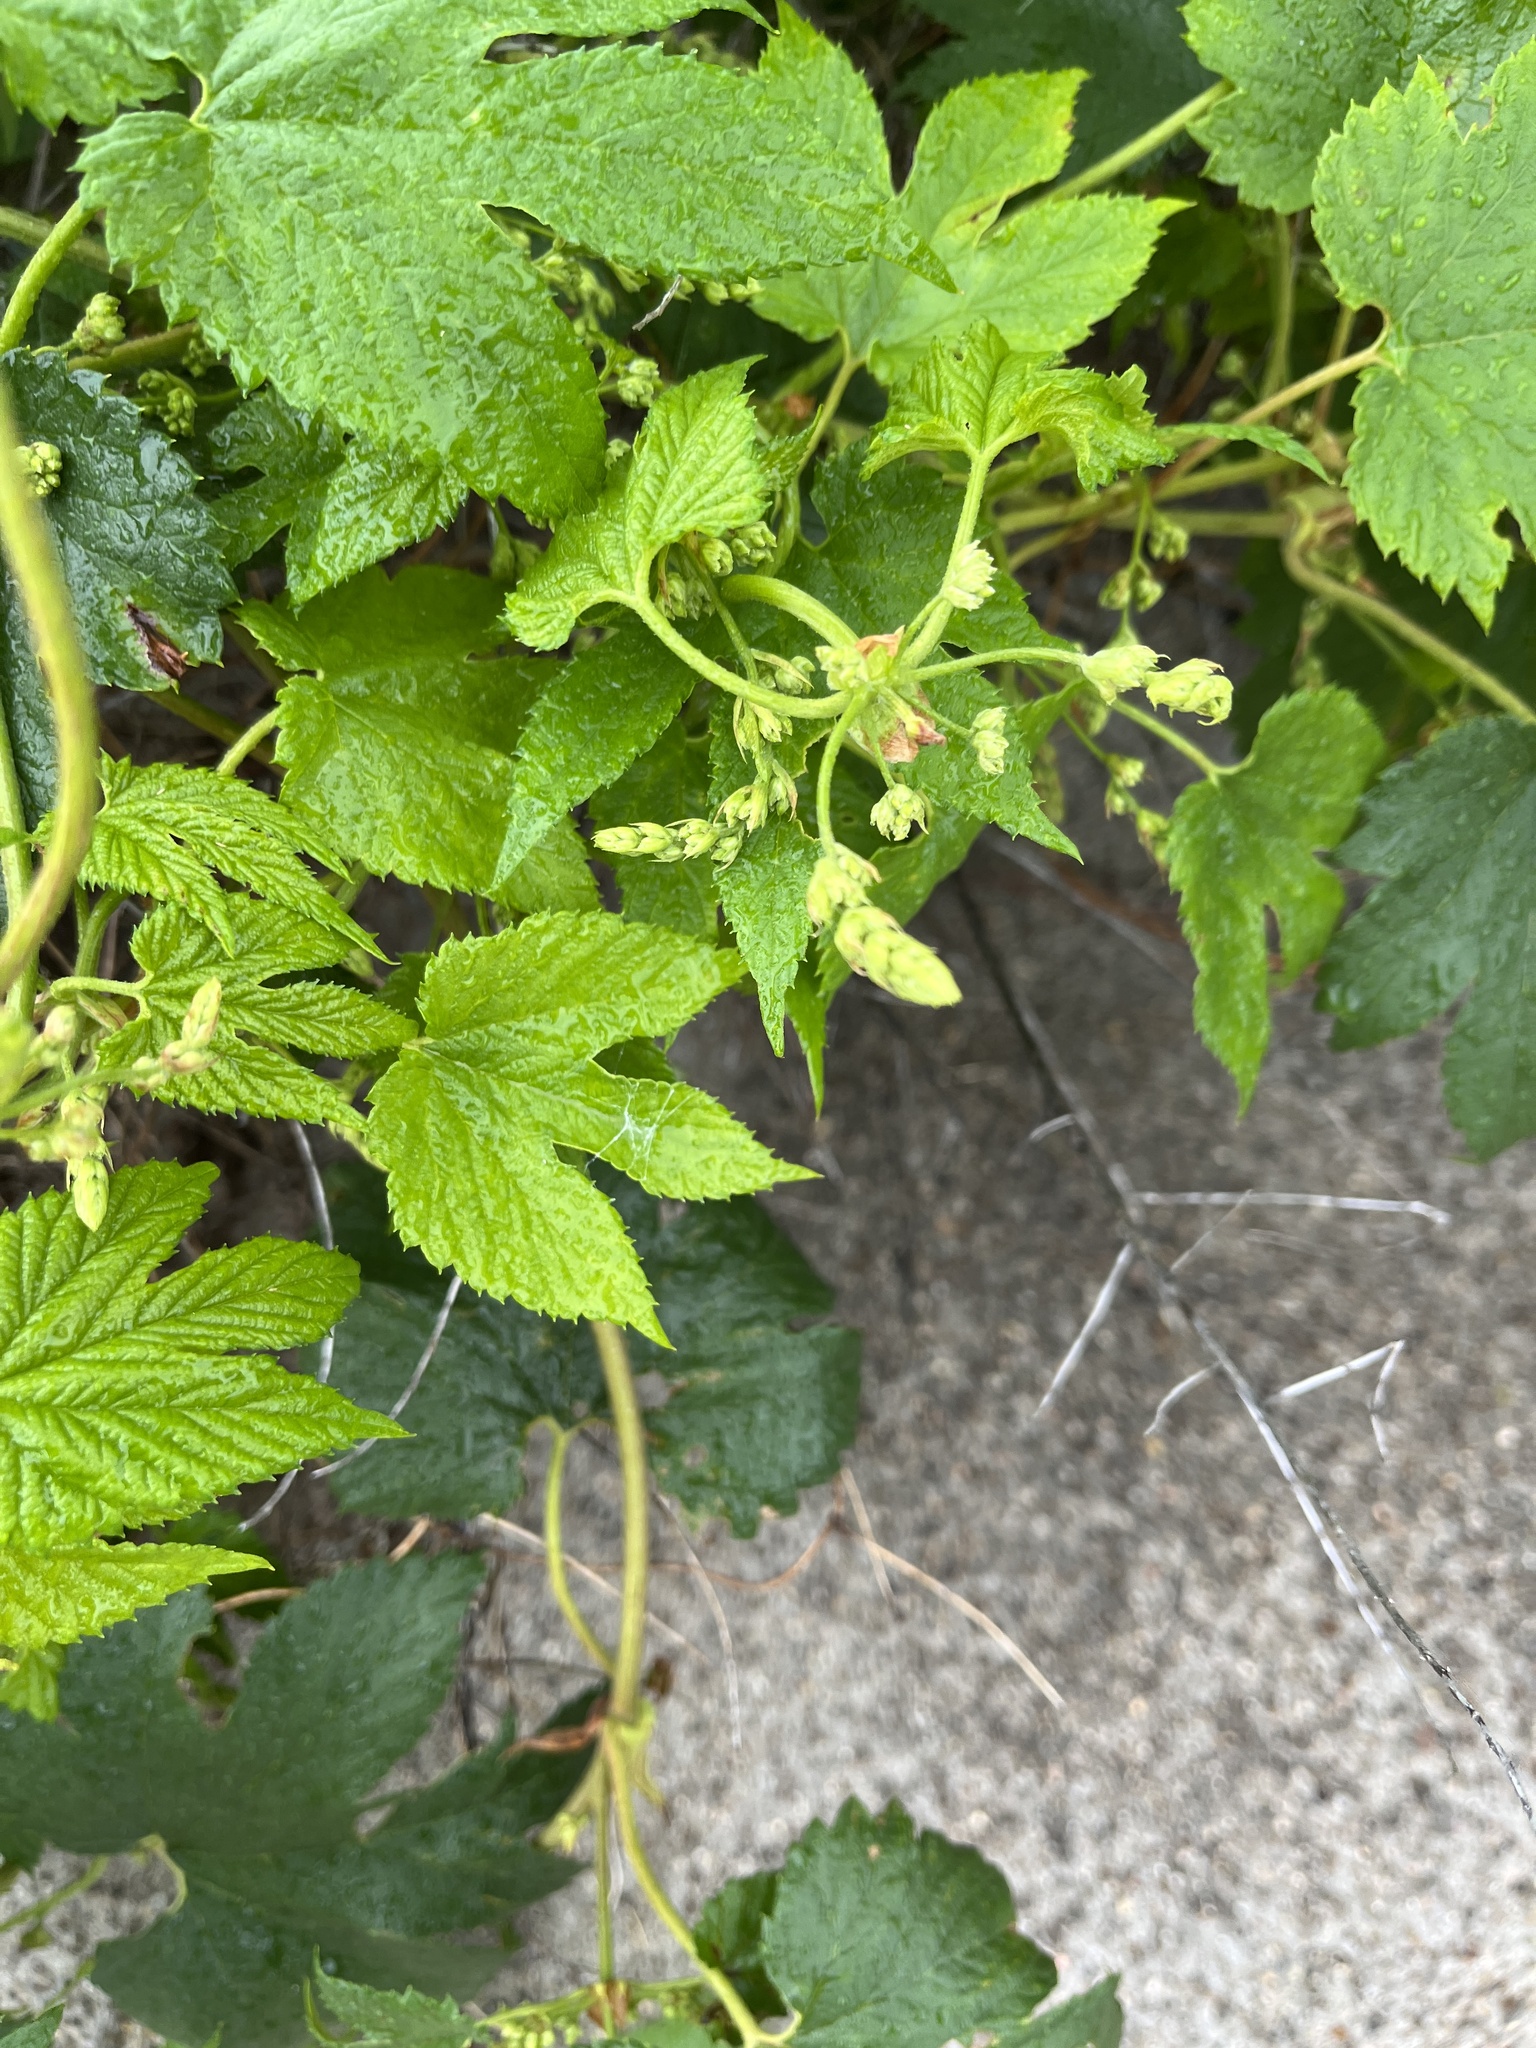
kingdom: Plantae
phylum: Tracheophyta
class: Magnoliopsida
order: Rosales
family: Cannabaceae
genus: Humulus
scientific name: Humulus lupulus
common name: Hop
